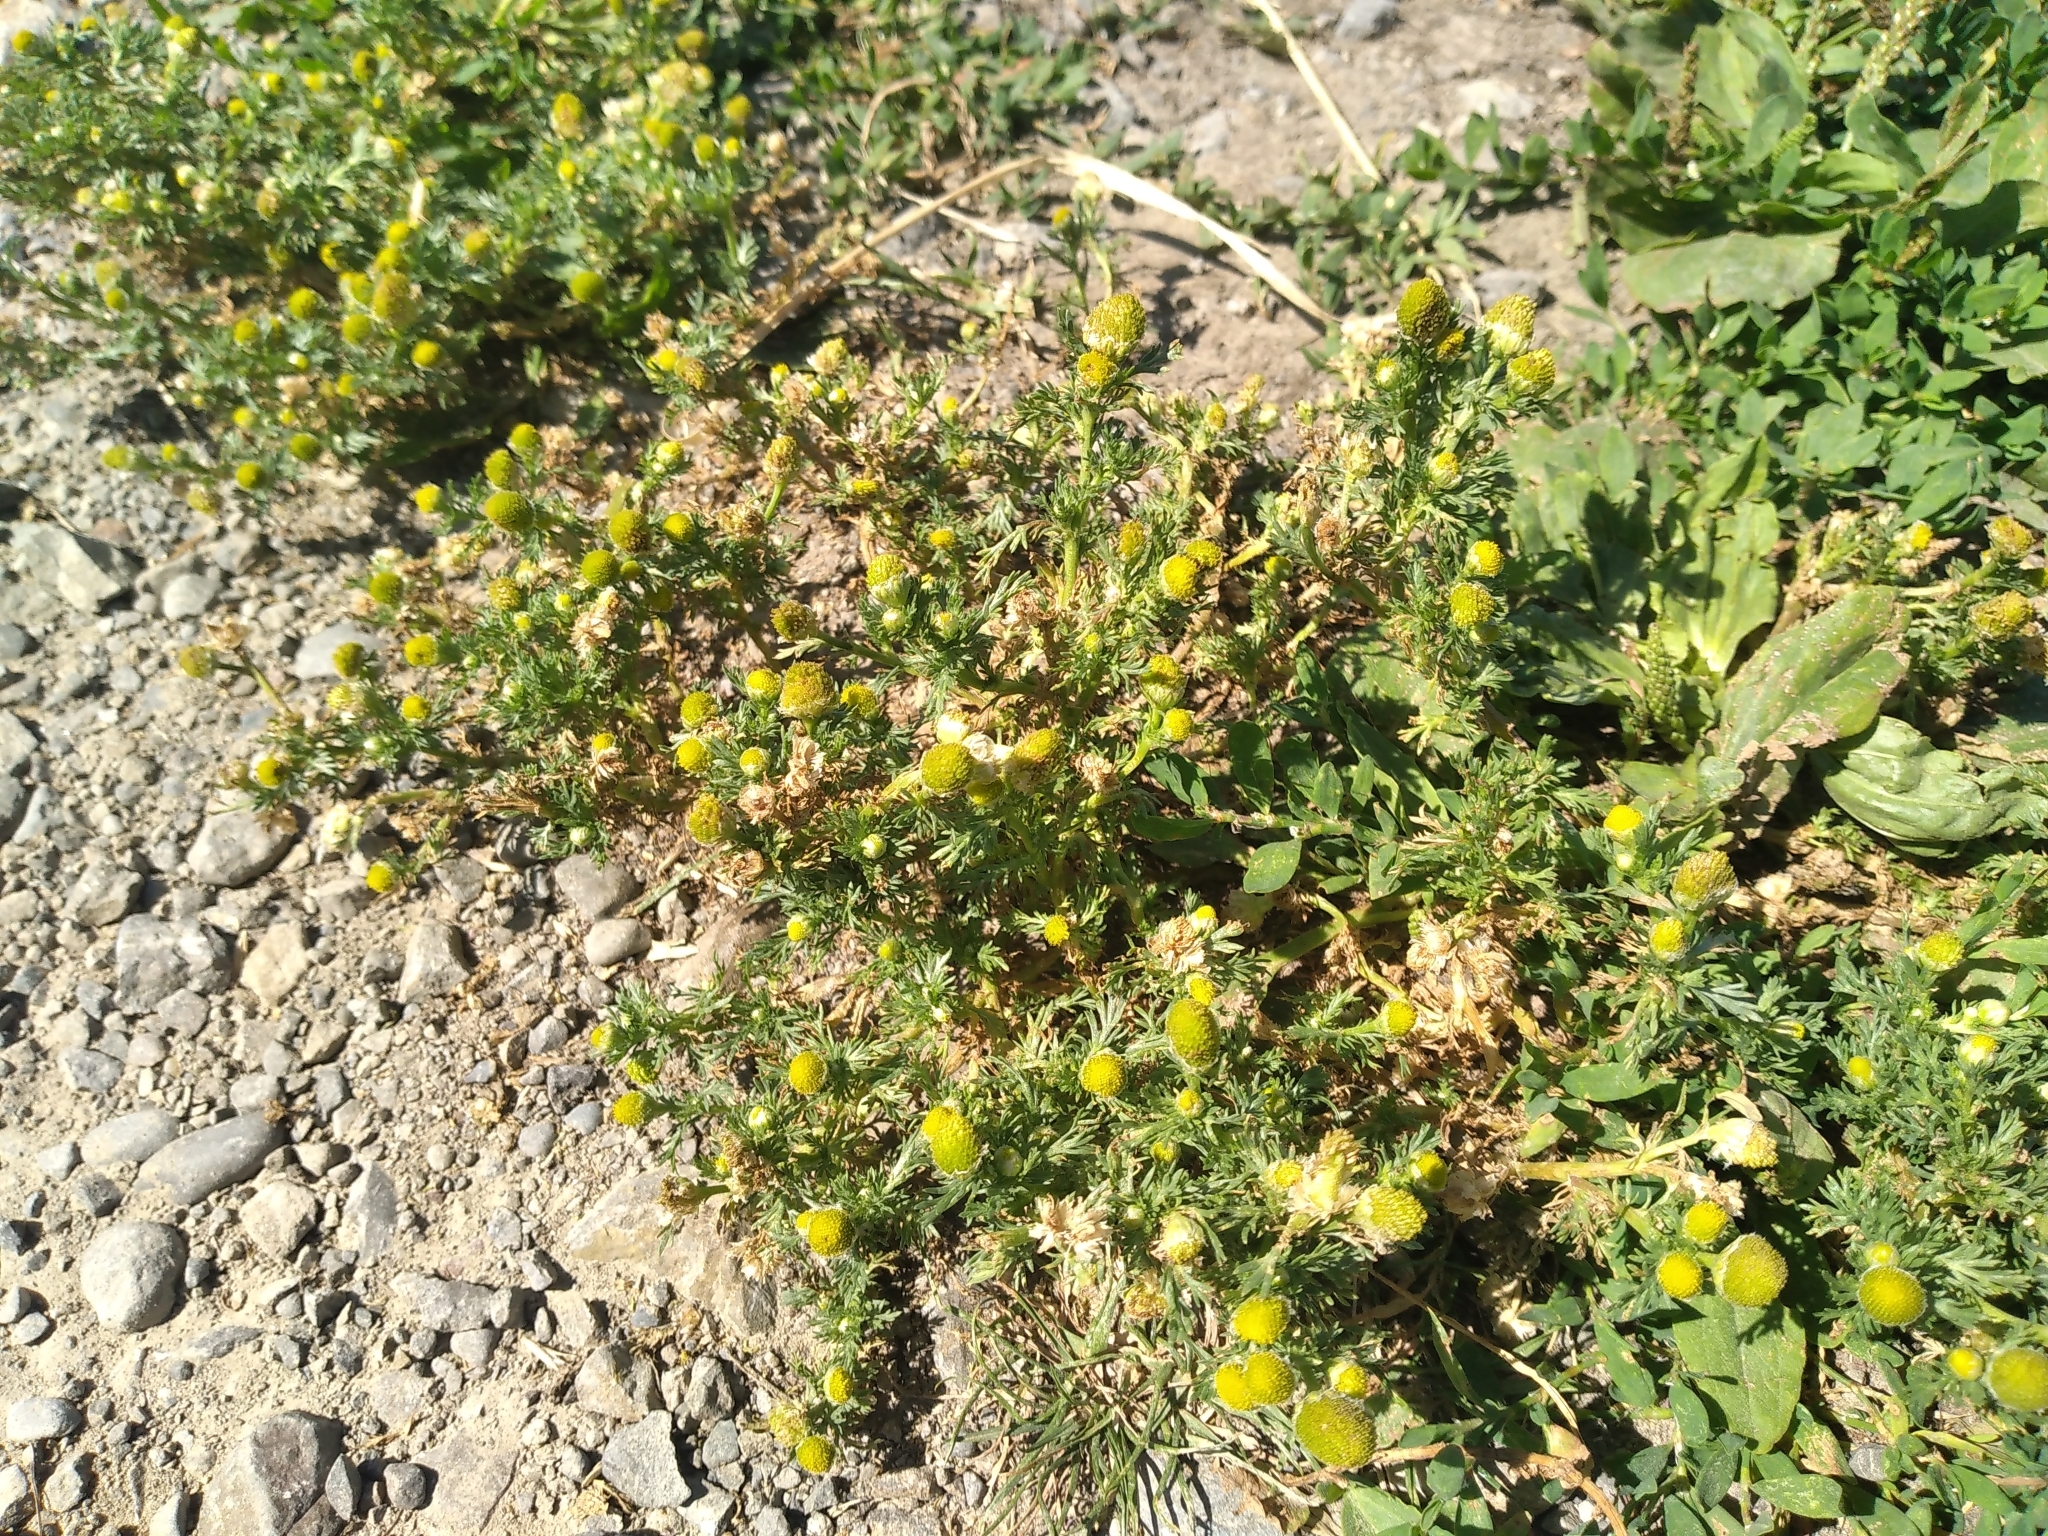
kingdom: Plantae
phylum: Tracheophyta
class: Magnoliopsida
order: Asterales
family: Asteraceae
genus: Matricaria
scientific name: Matricaria discoidea
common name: Disc mayweed
